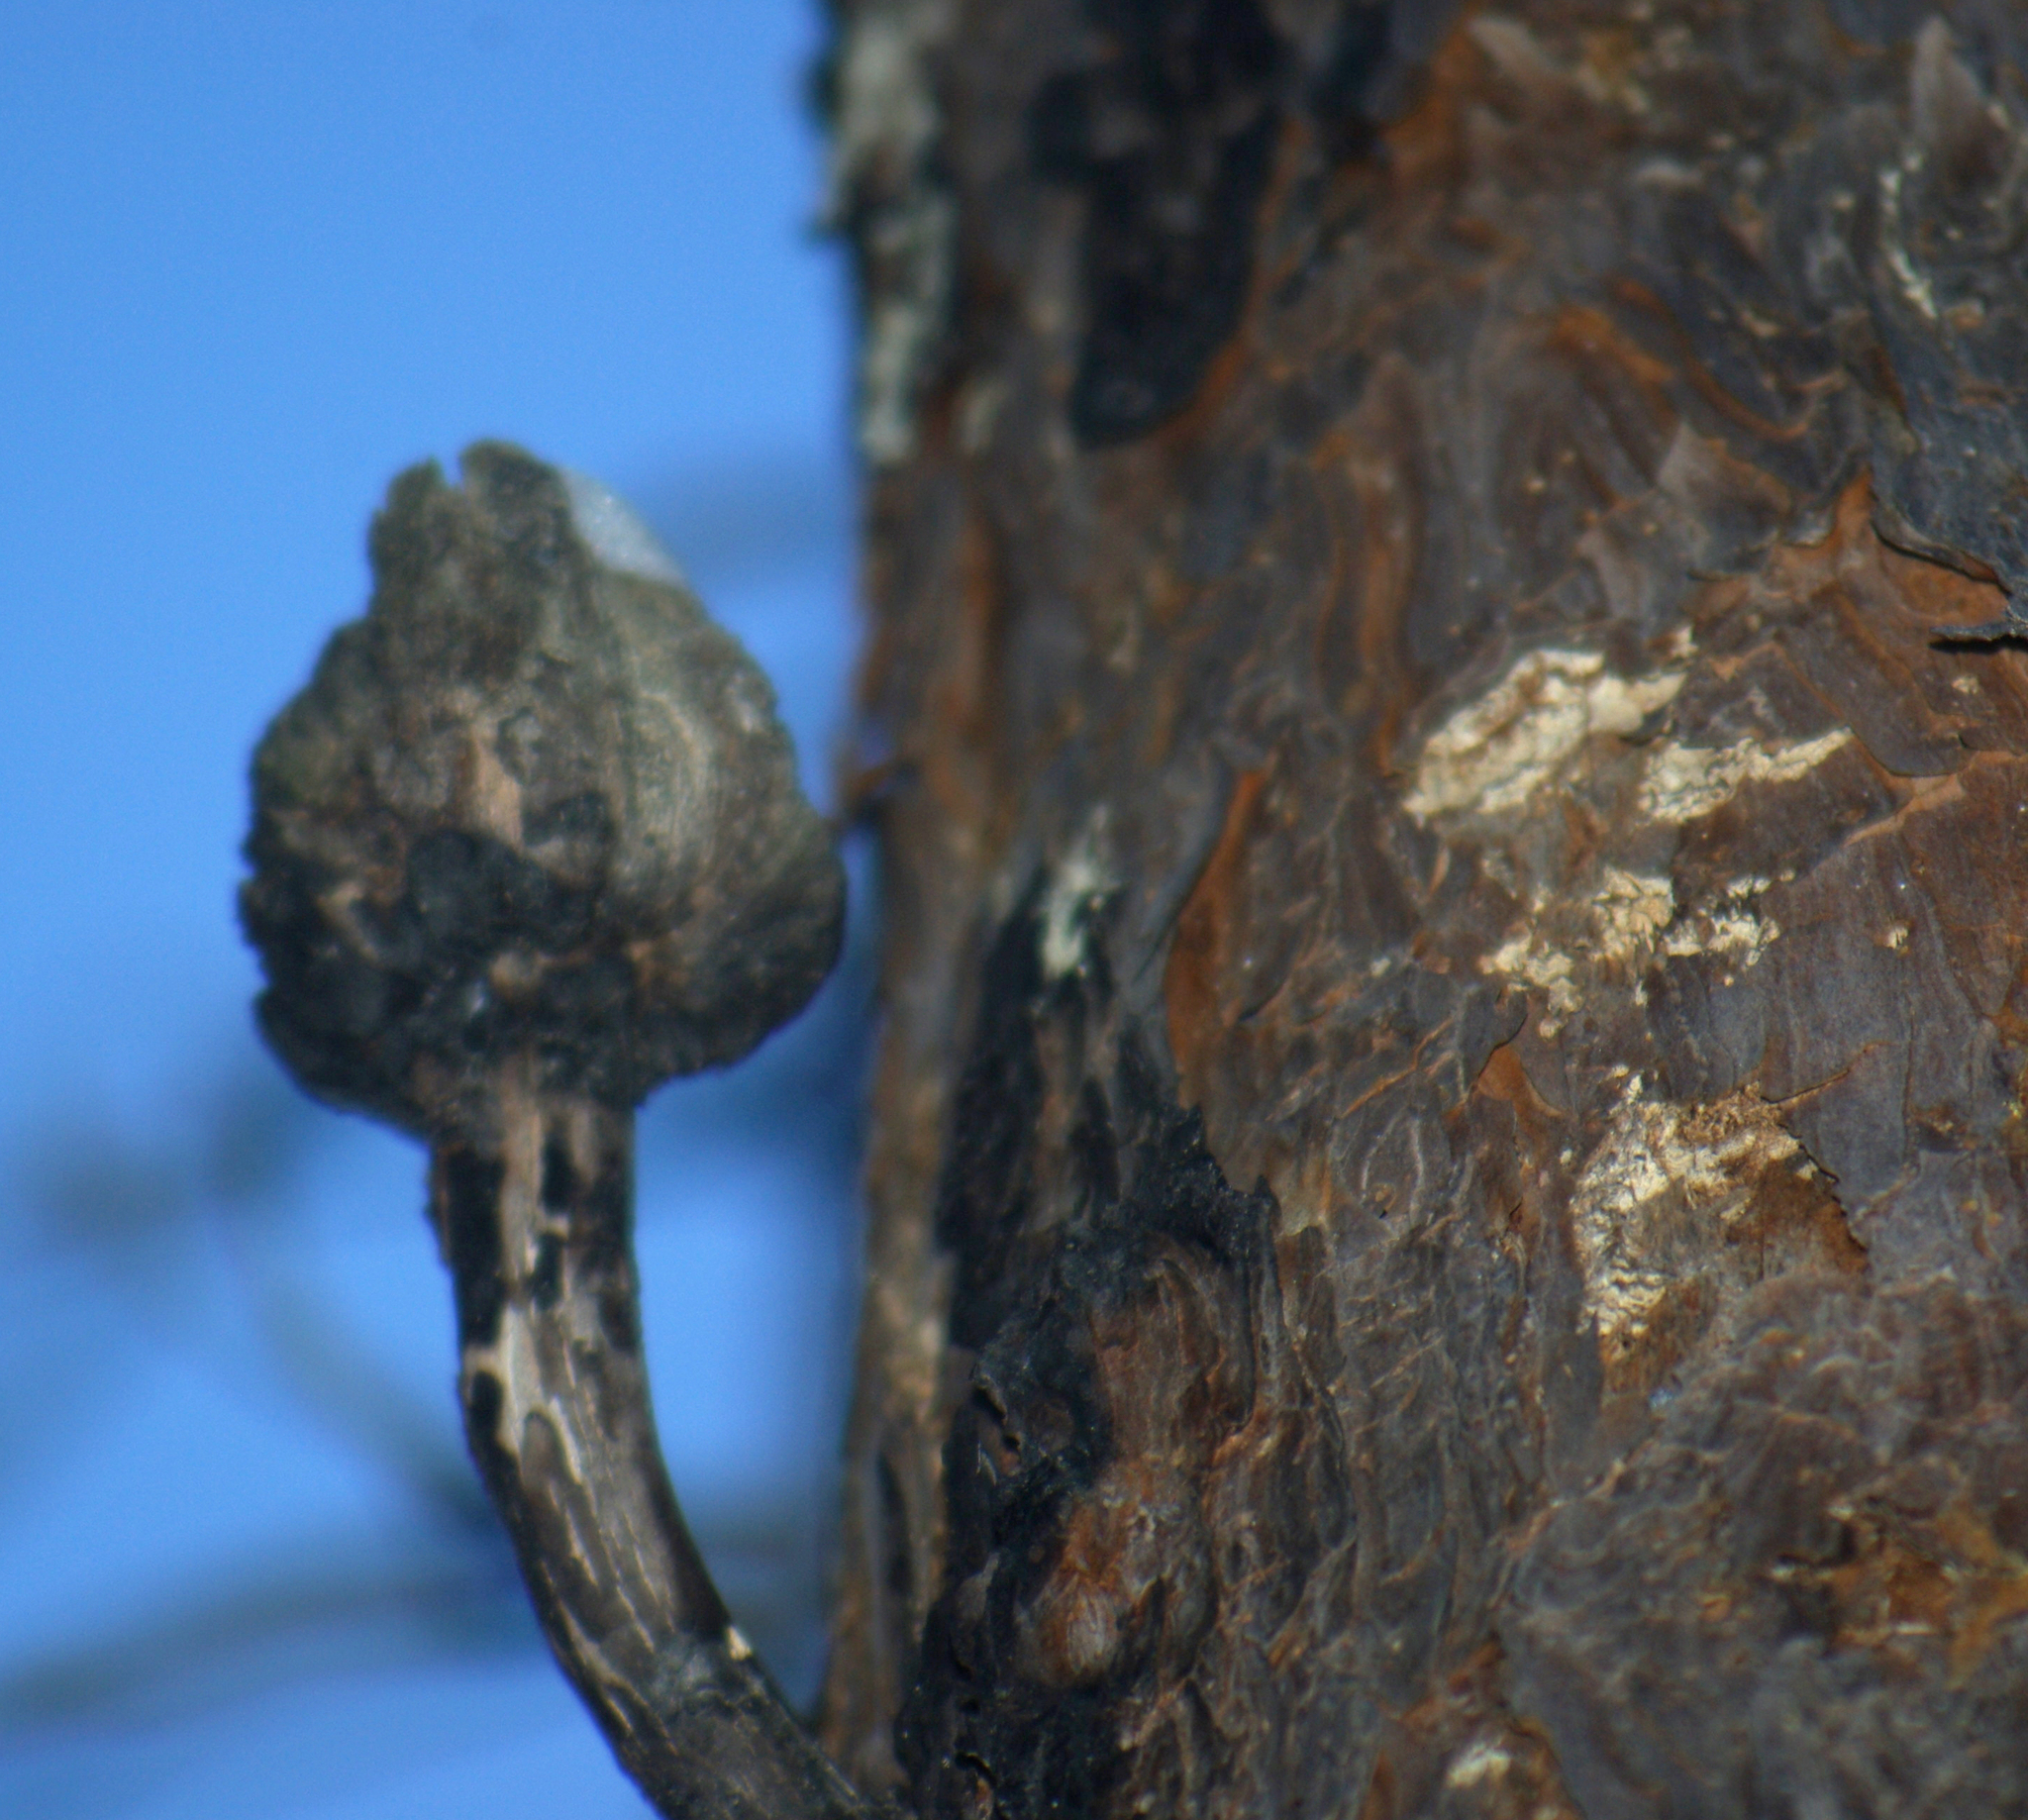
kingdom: Fungi
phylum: Basidiomycota
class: Pucciniomycetes
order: Pucciniales
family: Cronartiaceae
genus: Cronartium
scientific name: Cronartium harknessii
